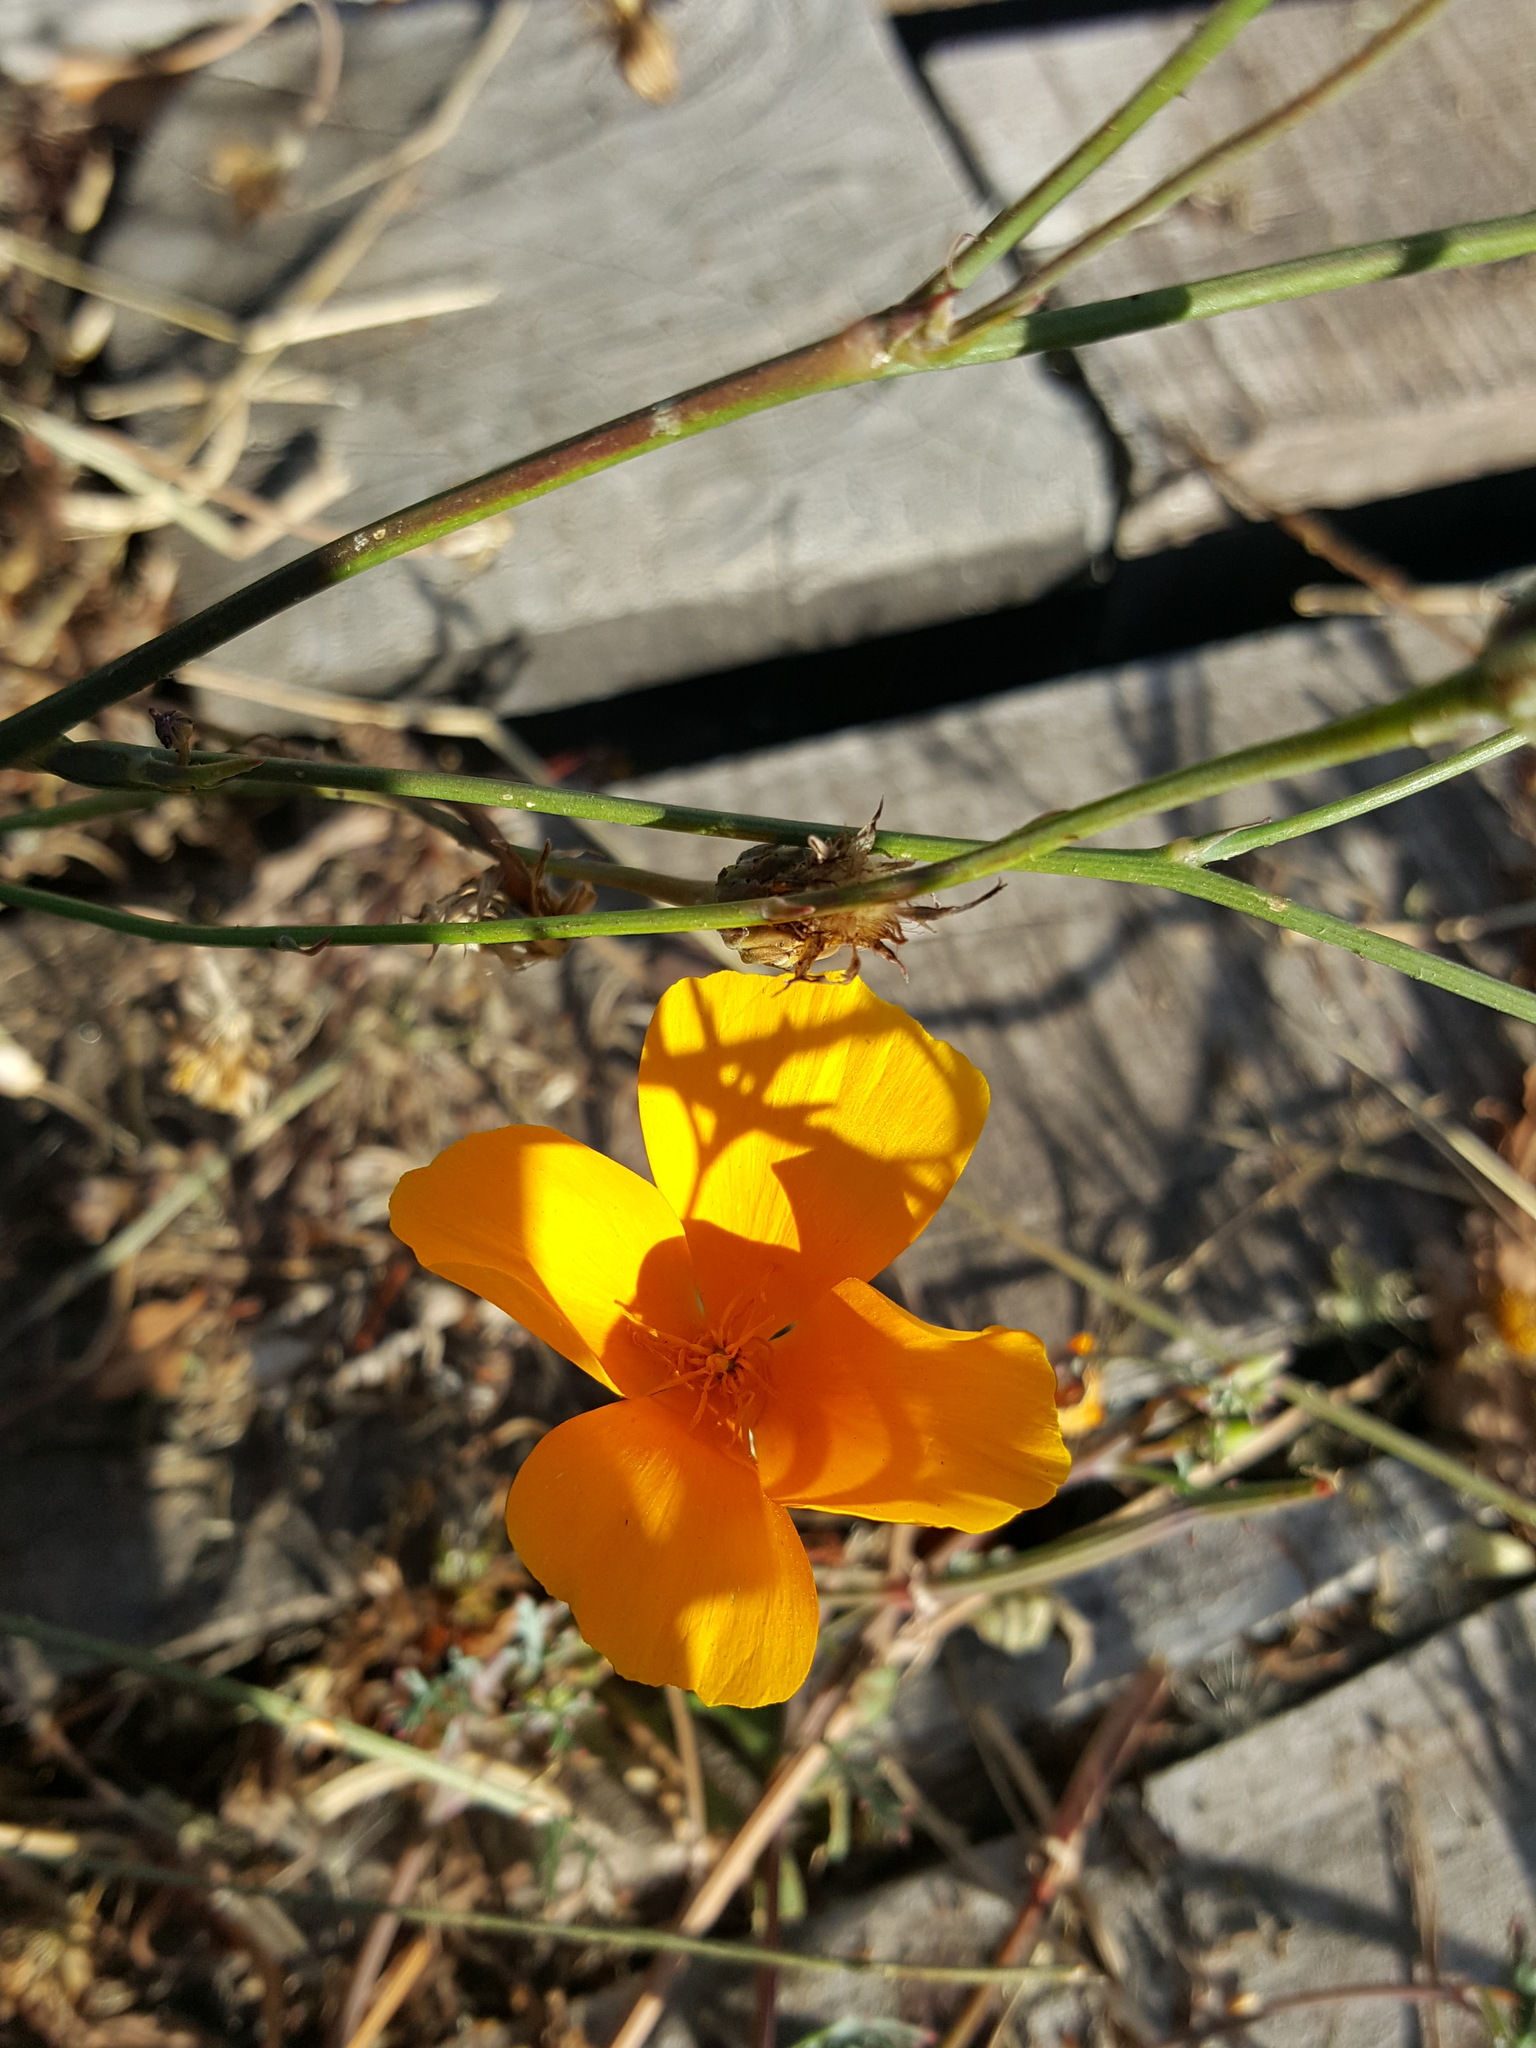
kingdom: Plantae
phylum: Tracheophyta
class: Magnoliopsida
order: Ranunculales
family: Papaveraceae
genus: Eschscholzia
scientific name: Eschscholzia californica
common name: California poppy
